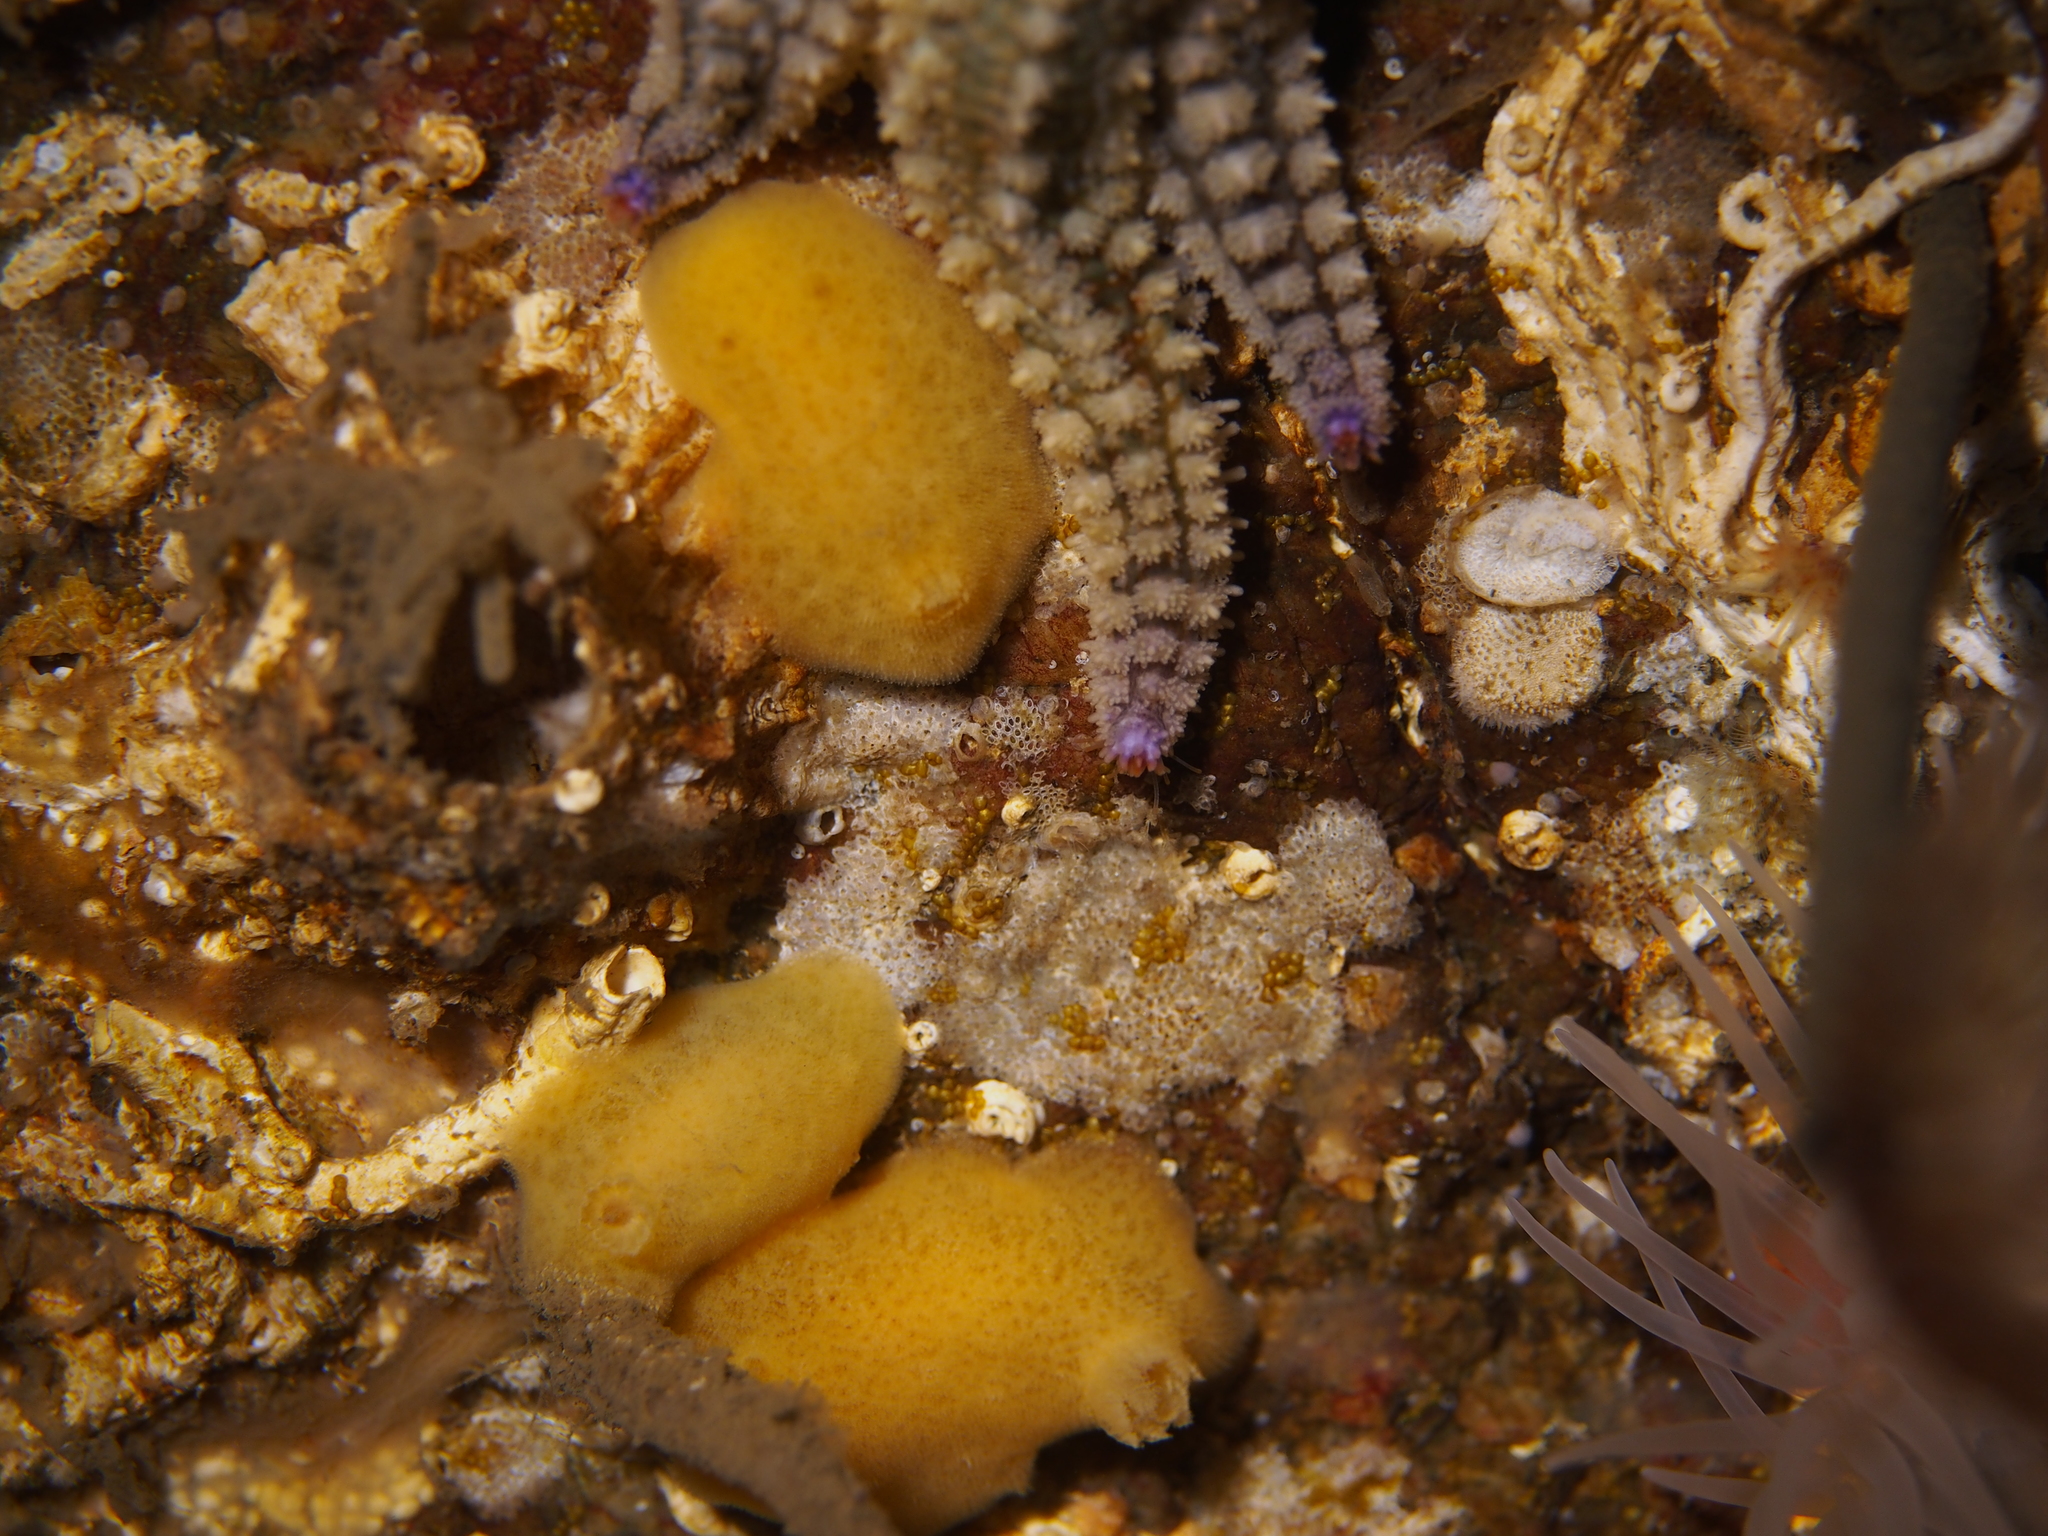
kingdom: Animalia
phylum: Mollusca
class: Gastropoda
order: Nudibranchia
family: Discodorididae
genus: Jorunna
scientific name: Jorunna tomentosa
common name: Grey sea slug
